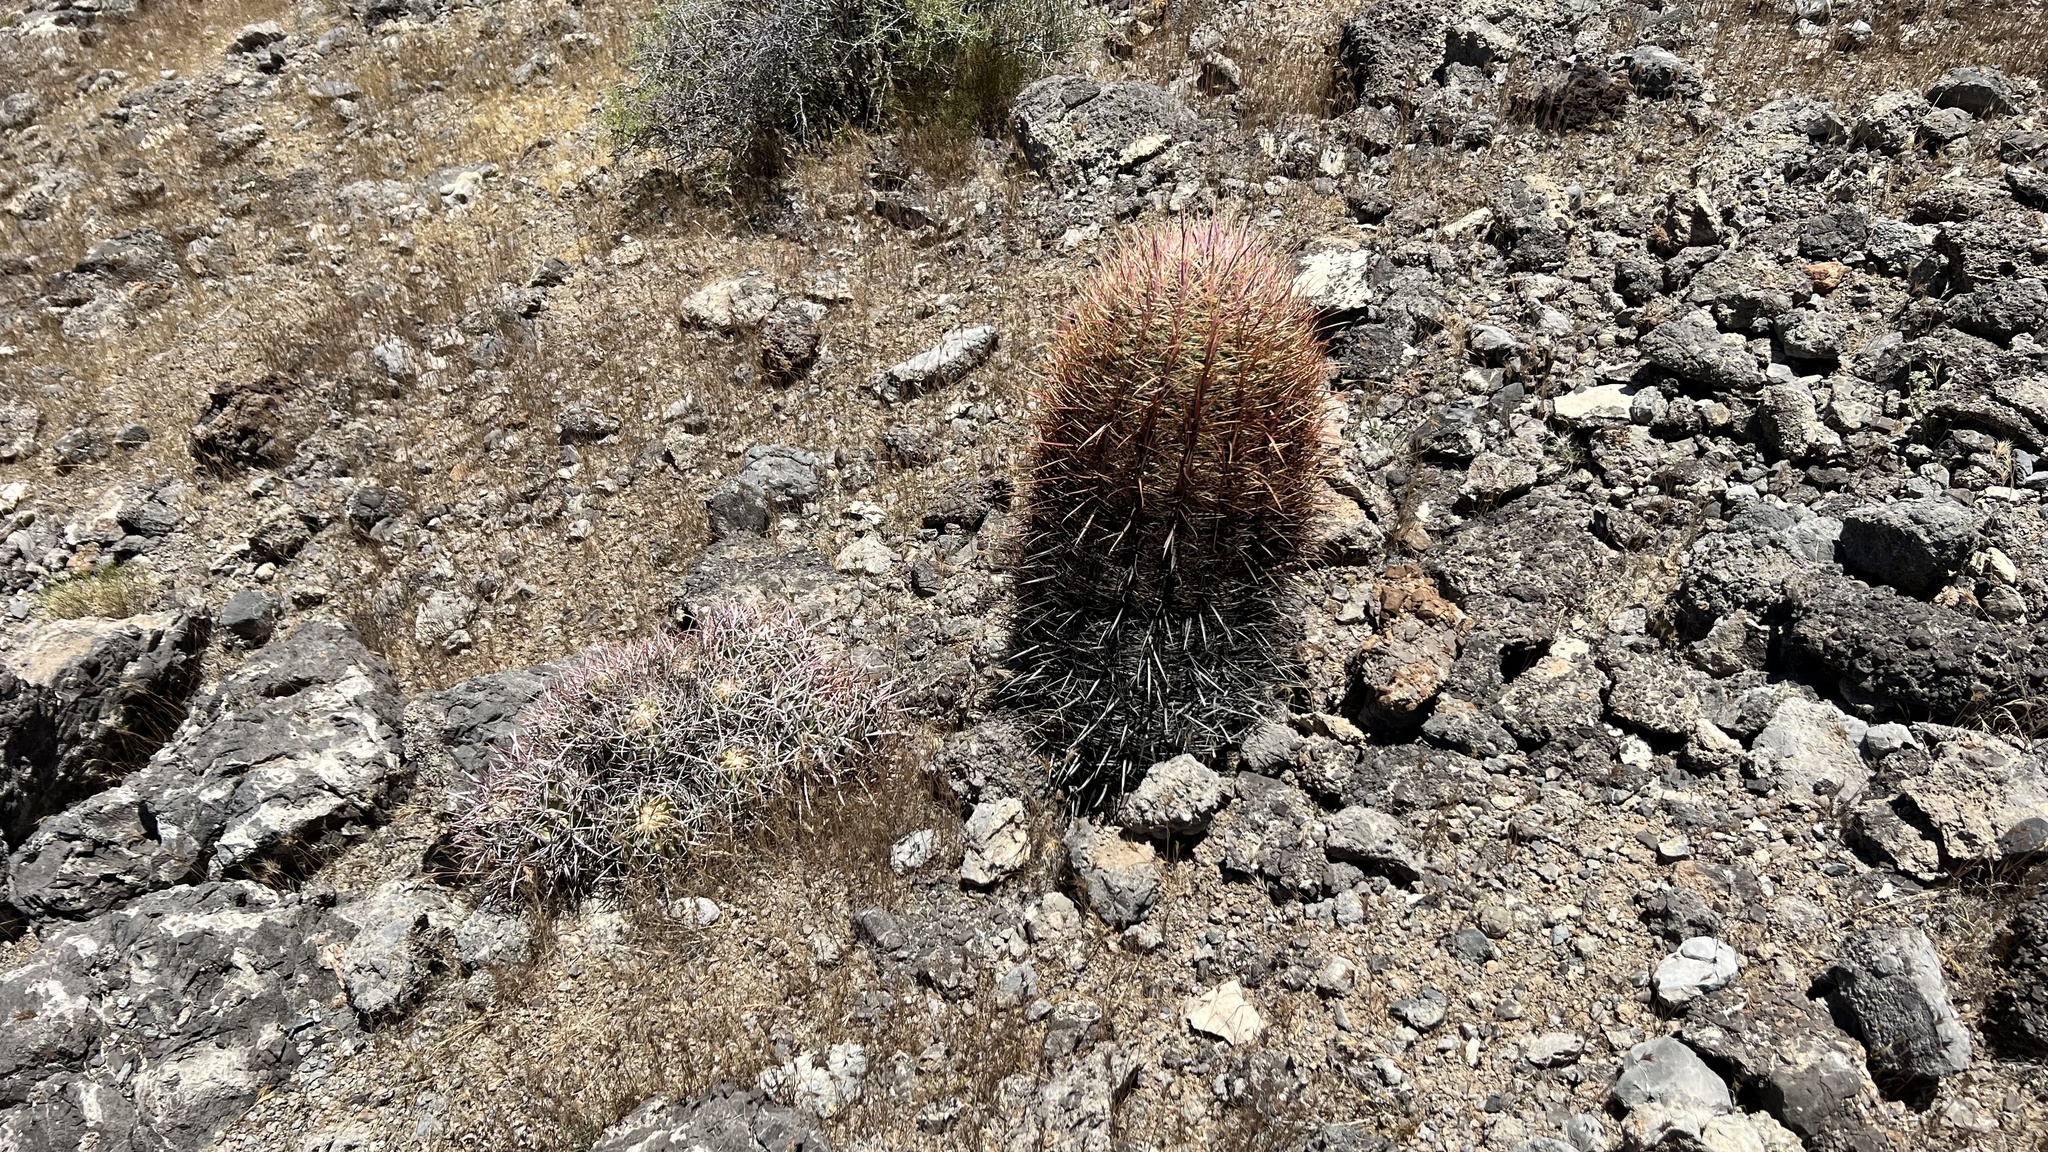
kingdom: Plantae
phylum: Tracheophyta
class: Magnoliopsida
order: Caryophyllales
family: Cactaceae
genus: Ferocactus
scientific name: Ferocactus cylindraceus
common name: California barrel cactus
